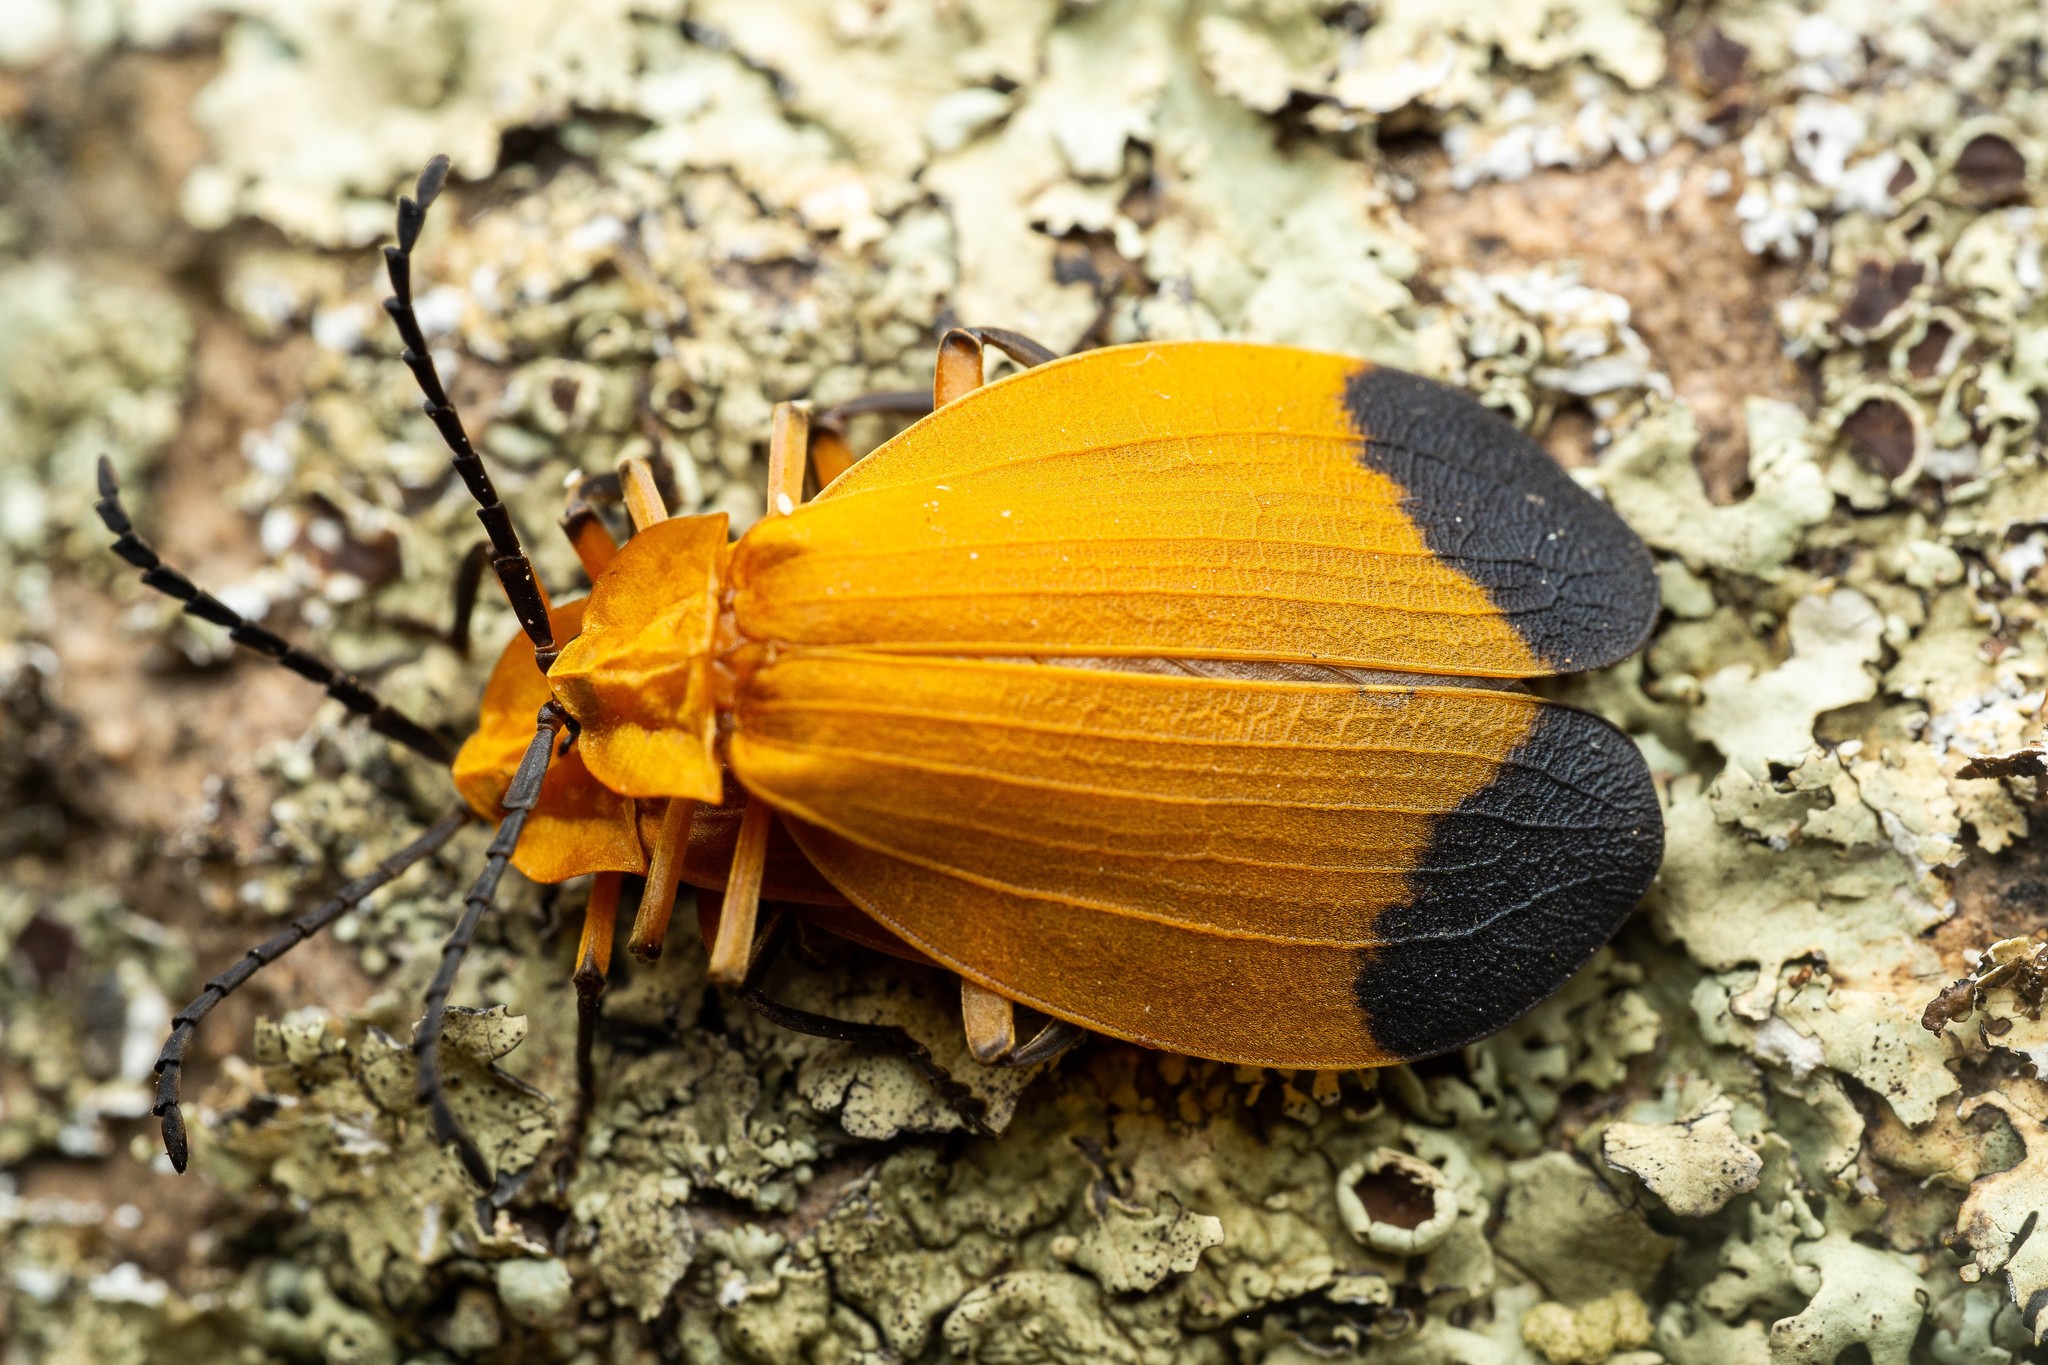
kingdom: Animalia
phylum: Arthropoda
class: Insecta
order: Coleoptera
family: Lycidae
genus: Lycus
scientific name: Lycus arizonensis
